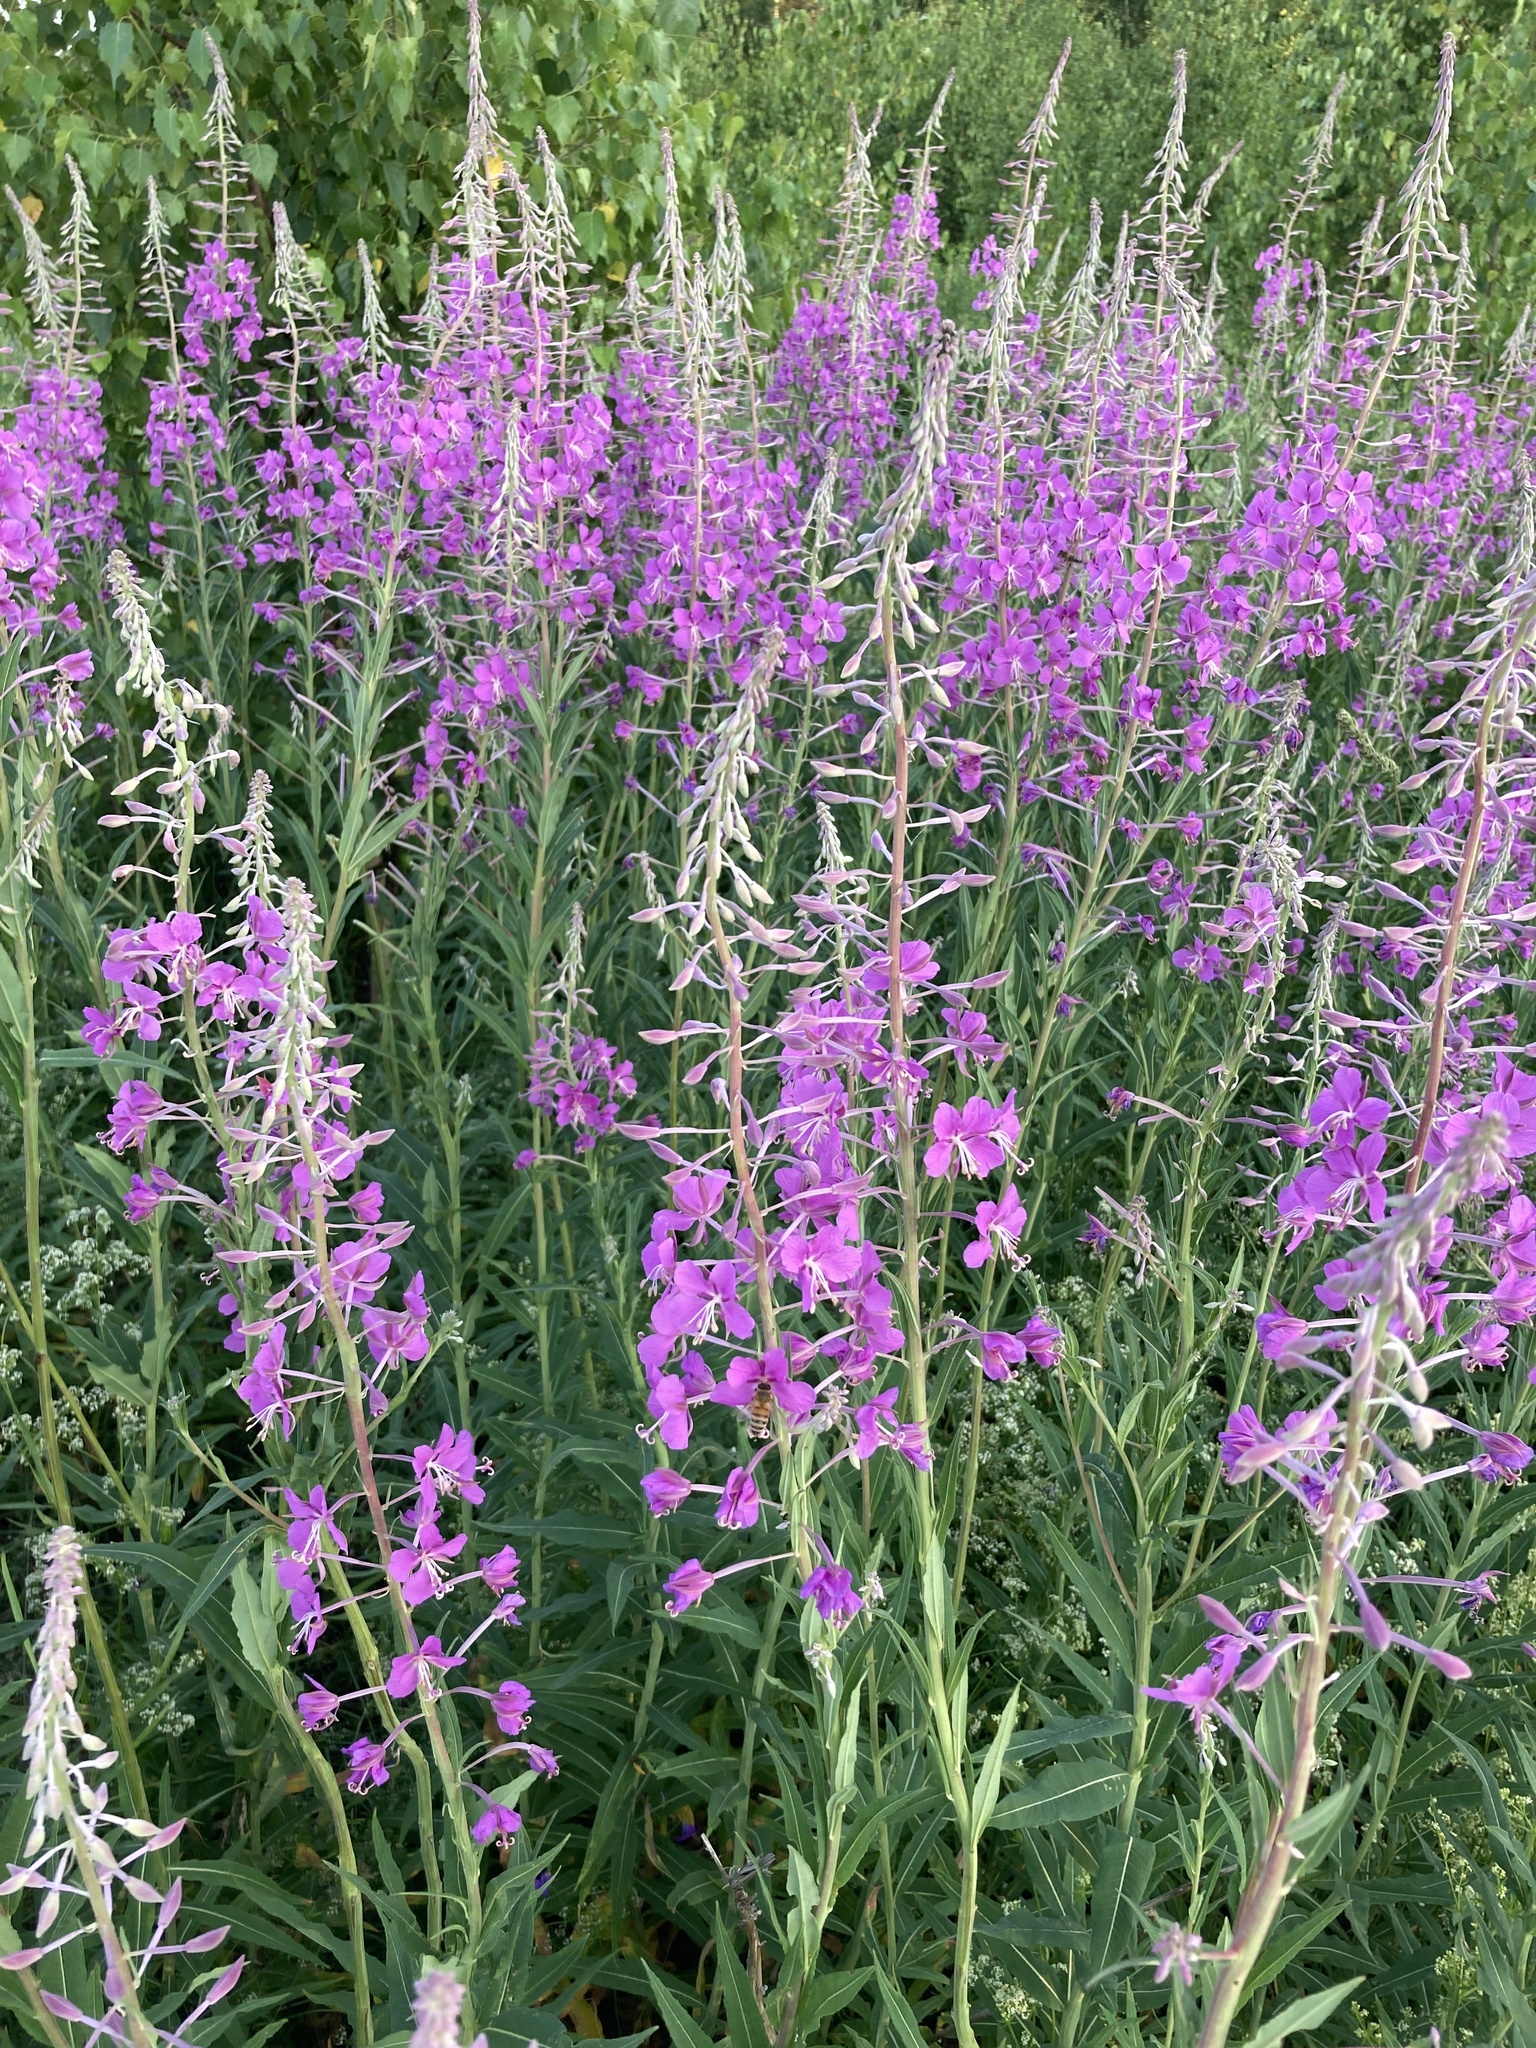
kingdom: Plantae
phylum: Tracheophyta
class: Magnoliopsida
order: Myrtales
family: Onagraceae
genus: Chamaenerion
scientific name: Chamaenerion angustifolium
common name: Fireweed
